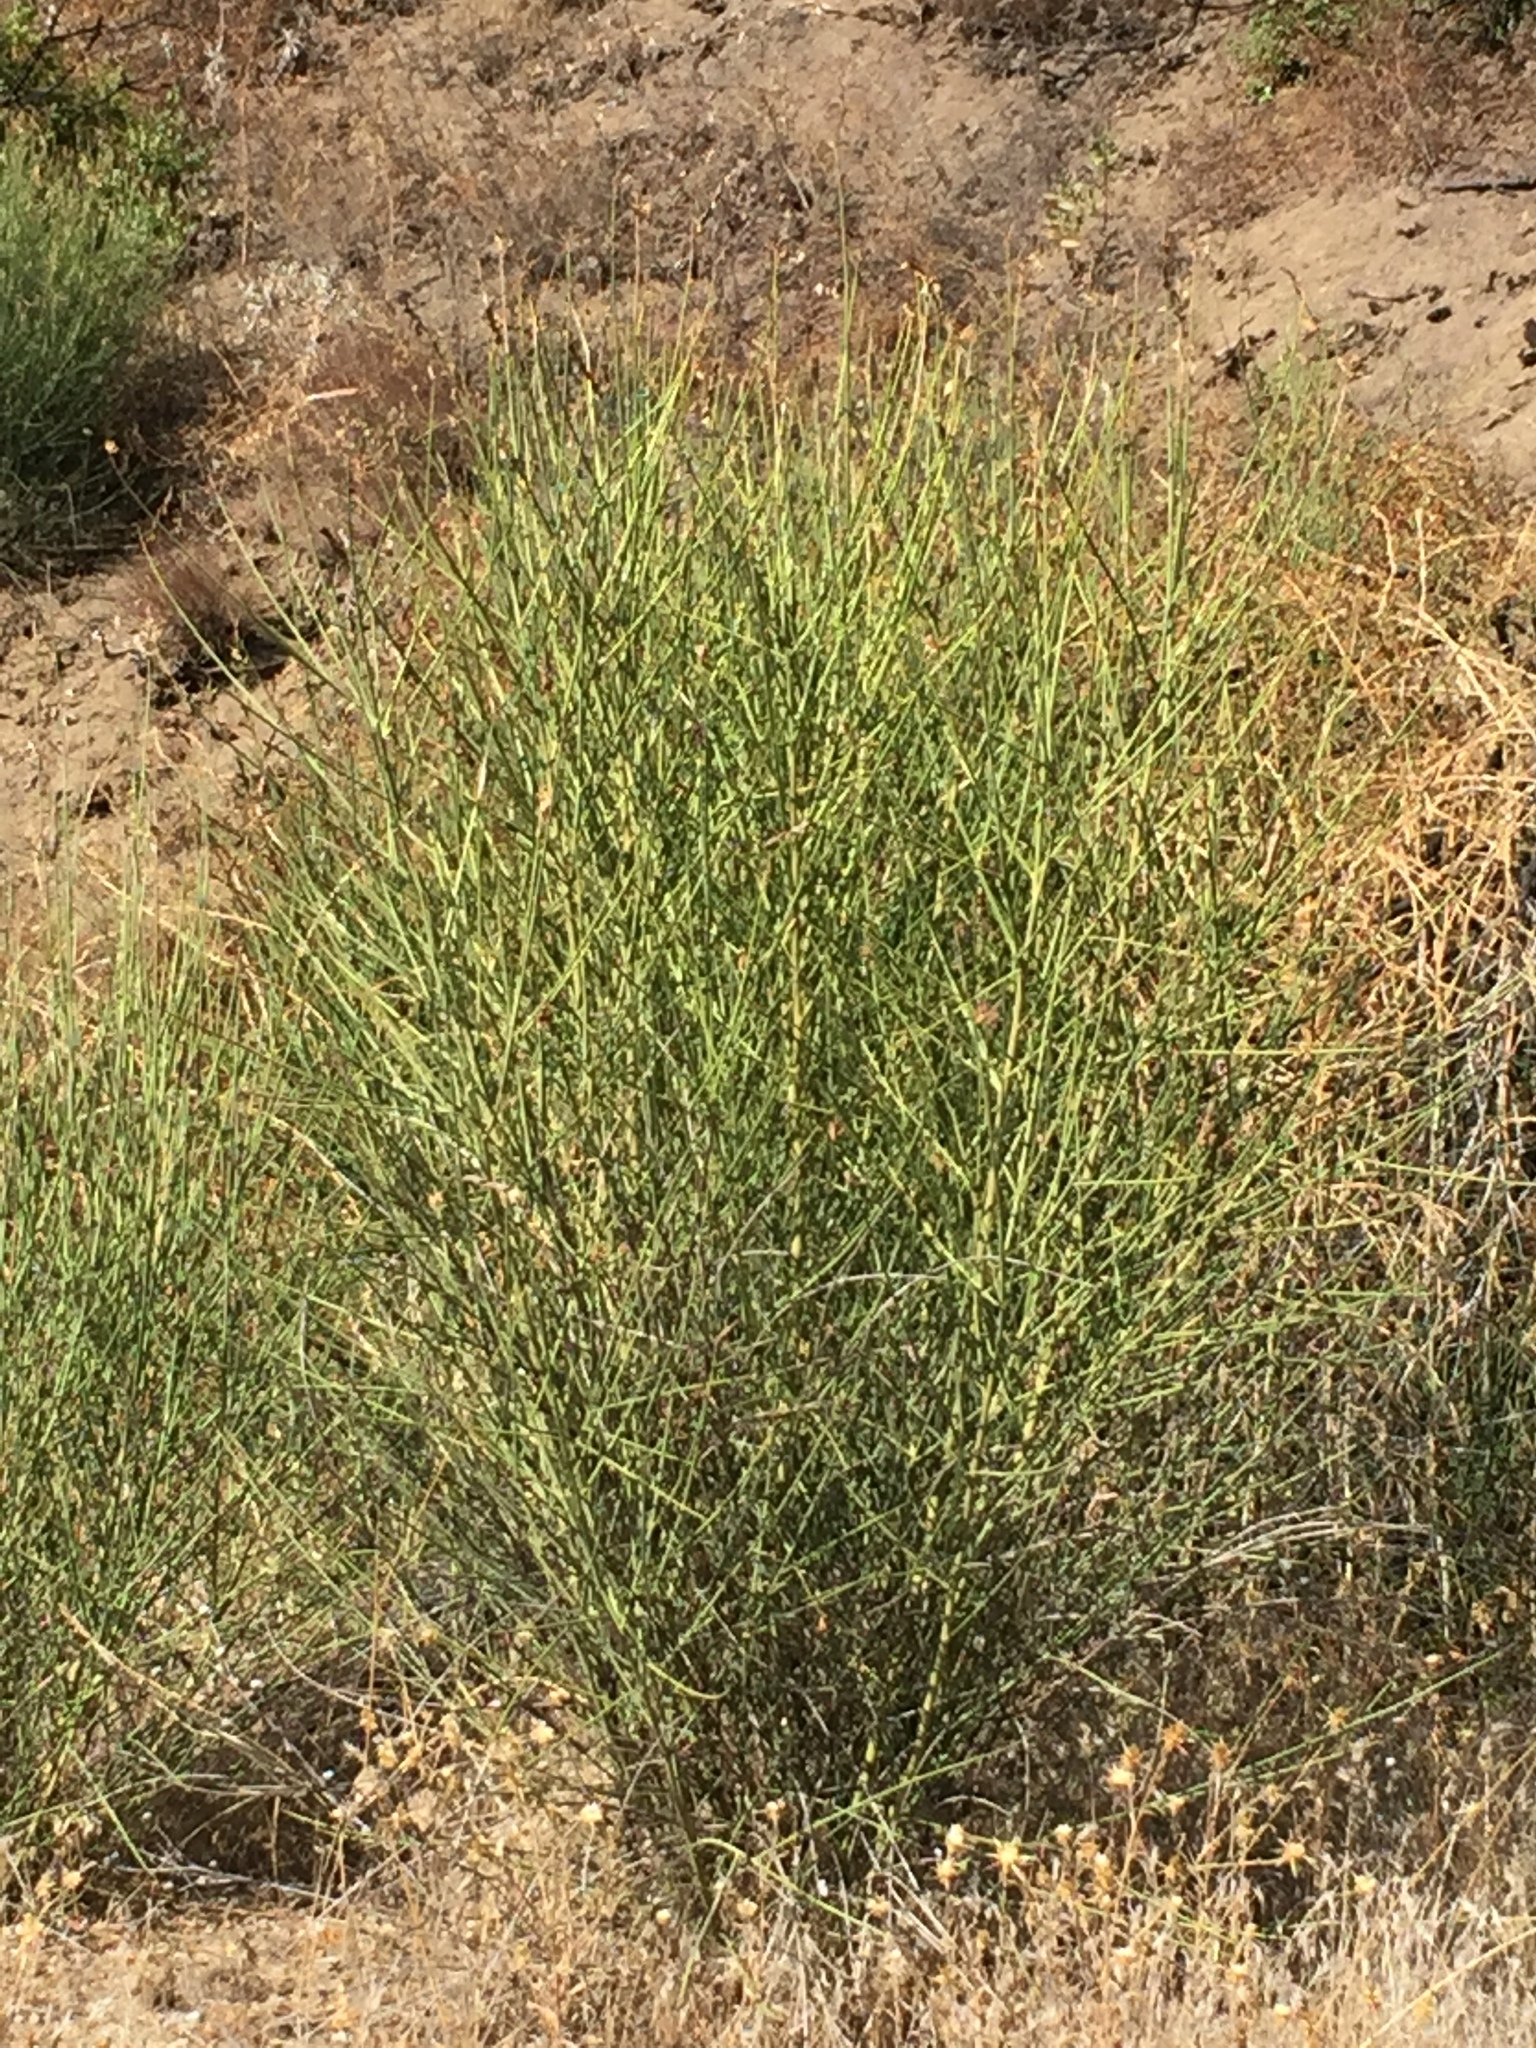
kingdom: Plantae
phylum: Tracheophyta
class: Magnoliopsida
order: Fabales
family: Fabaceae
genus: Spartium
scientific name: Spartium junceum
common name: Spanish broom
